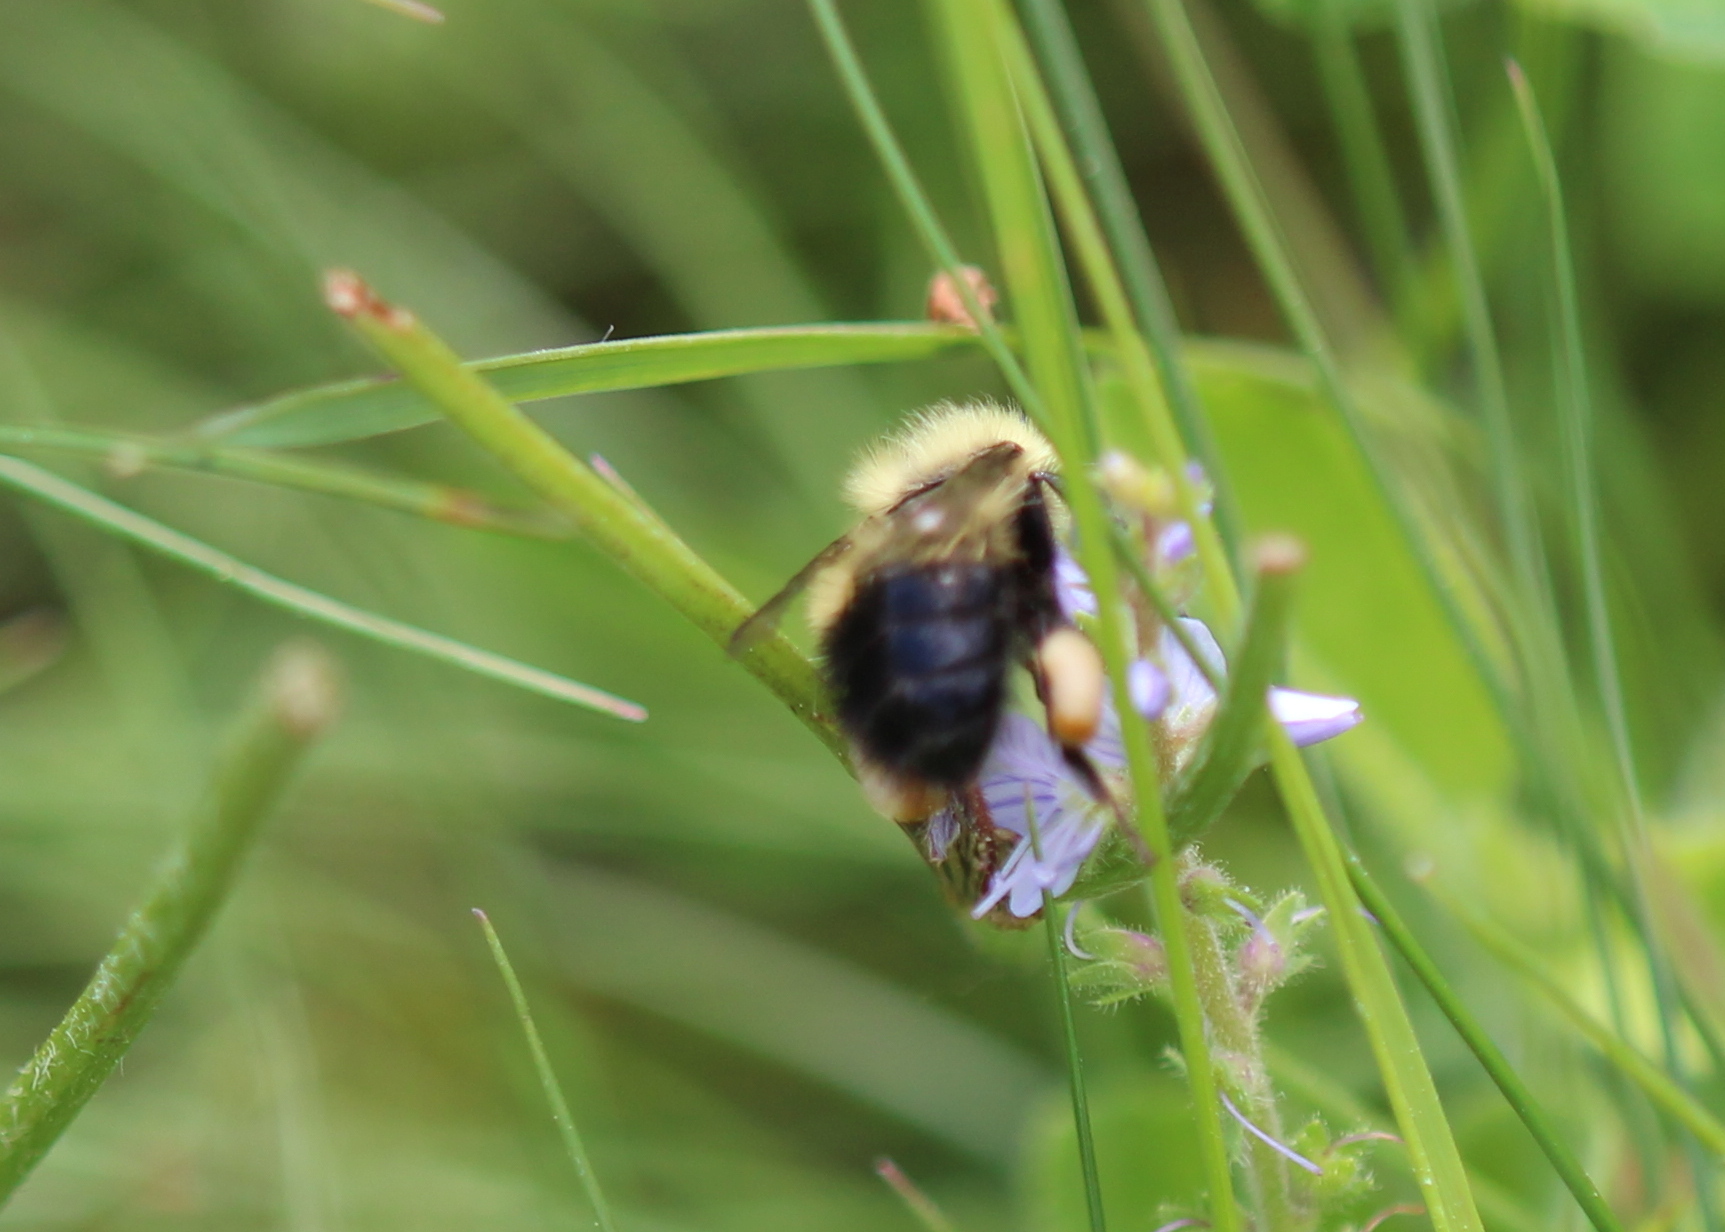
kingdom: Animalia
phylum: Arthropoda
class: Insecta
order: Hymenoptera
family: Apidae
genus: Bombus
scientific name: Bombus impatiens
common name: Common eastern bumble bee
